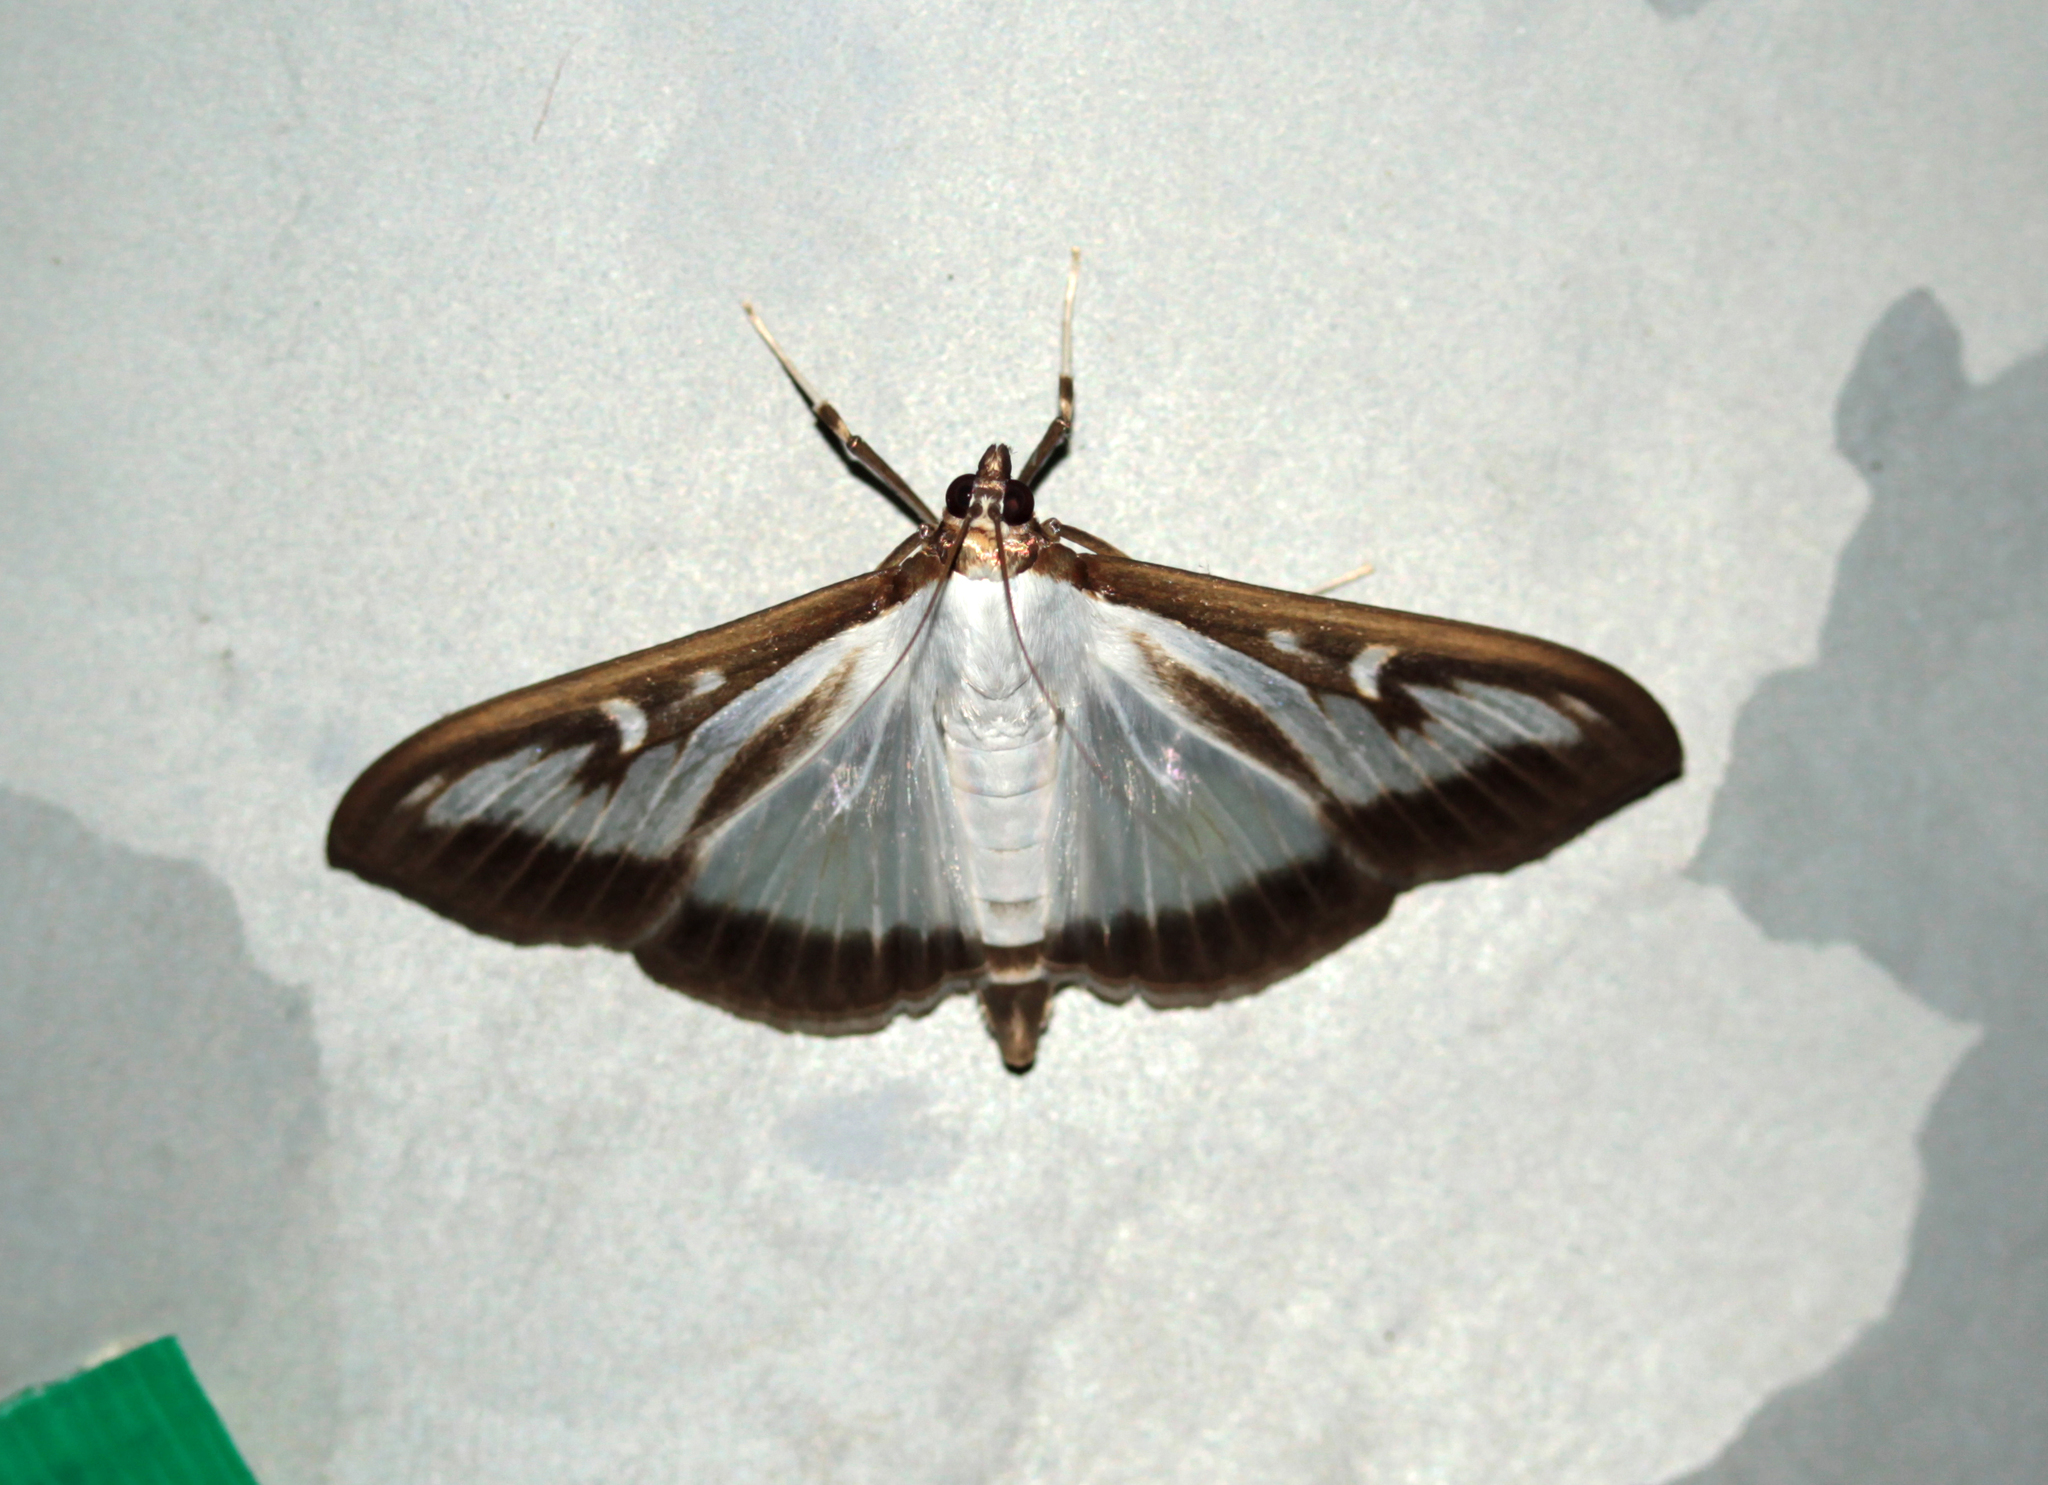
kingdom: Animalia
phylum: Arthropoda
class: Insecta
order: Lepidoptera
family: Crambidae
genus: Cydalima
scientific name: Cydalima perspectalis
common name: Box tree moth
